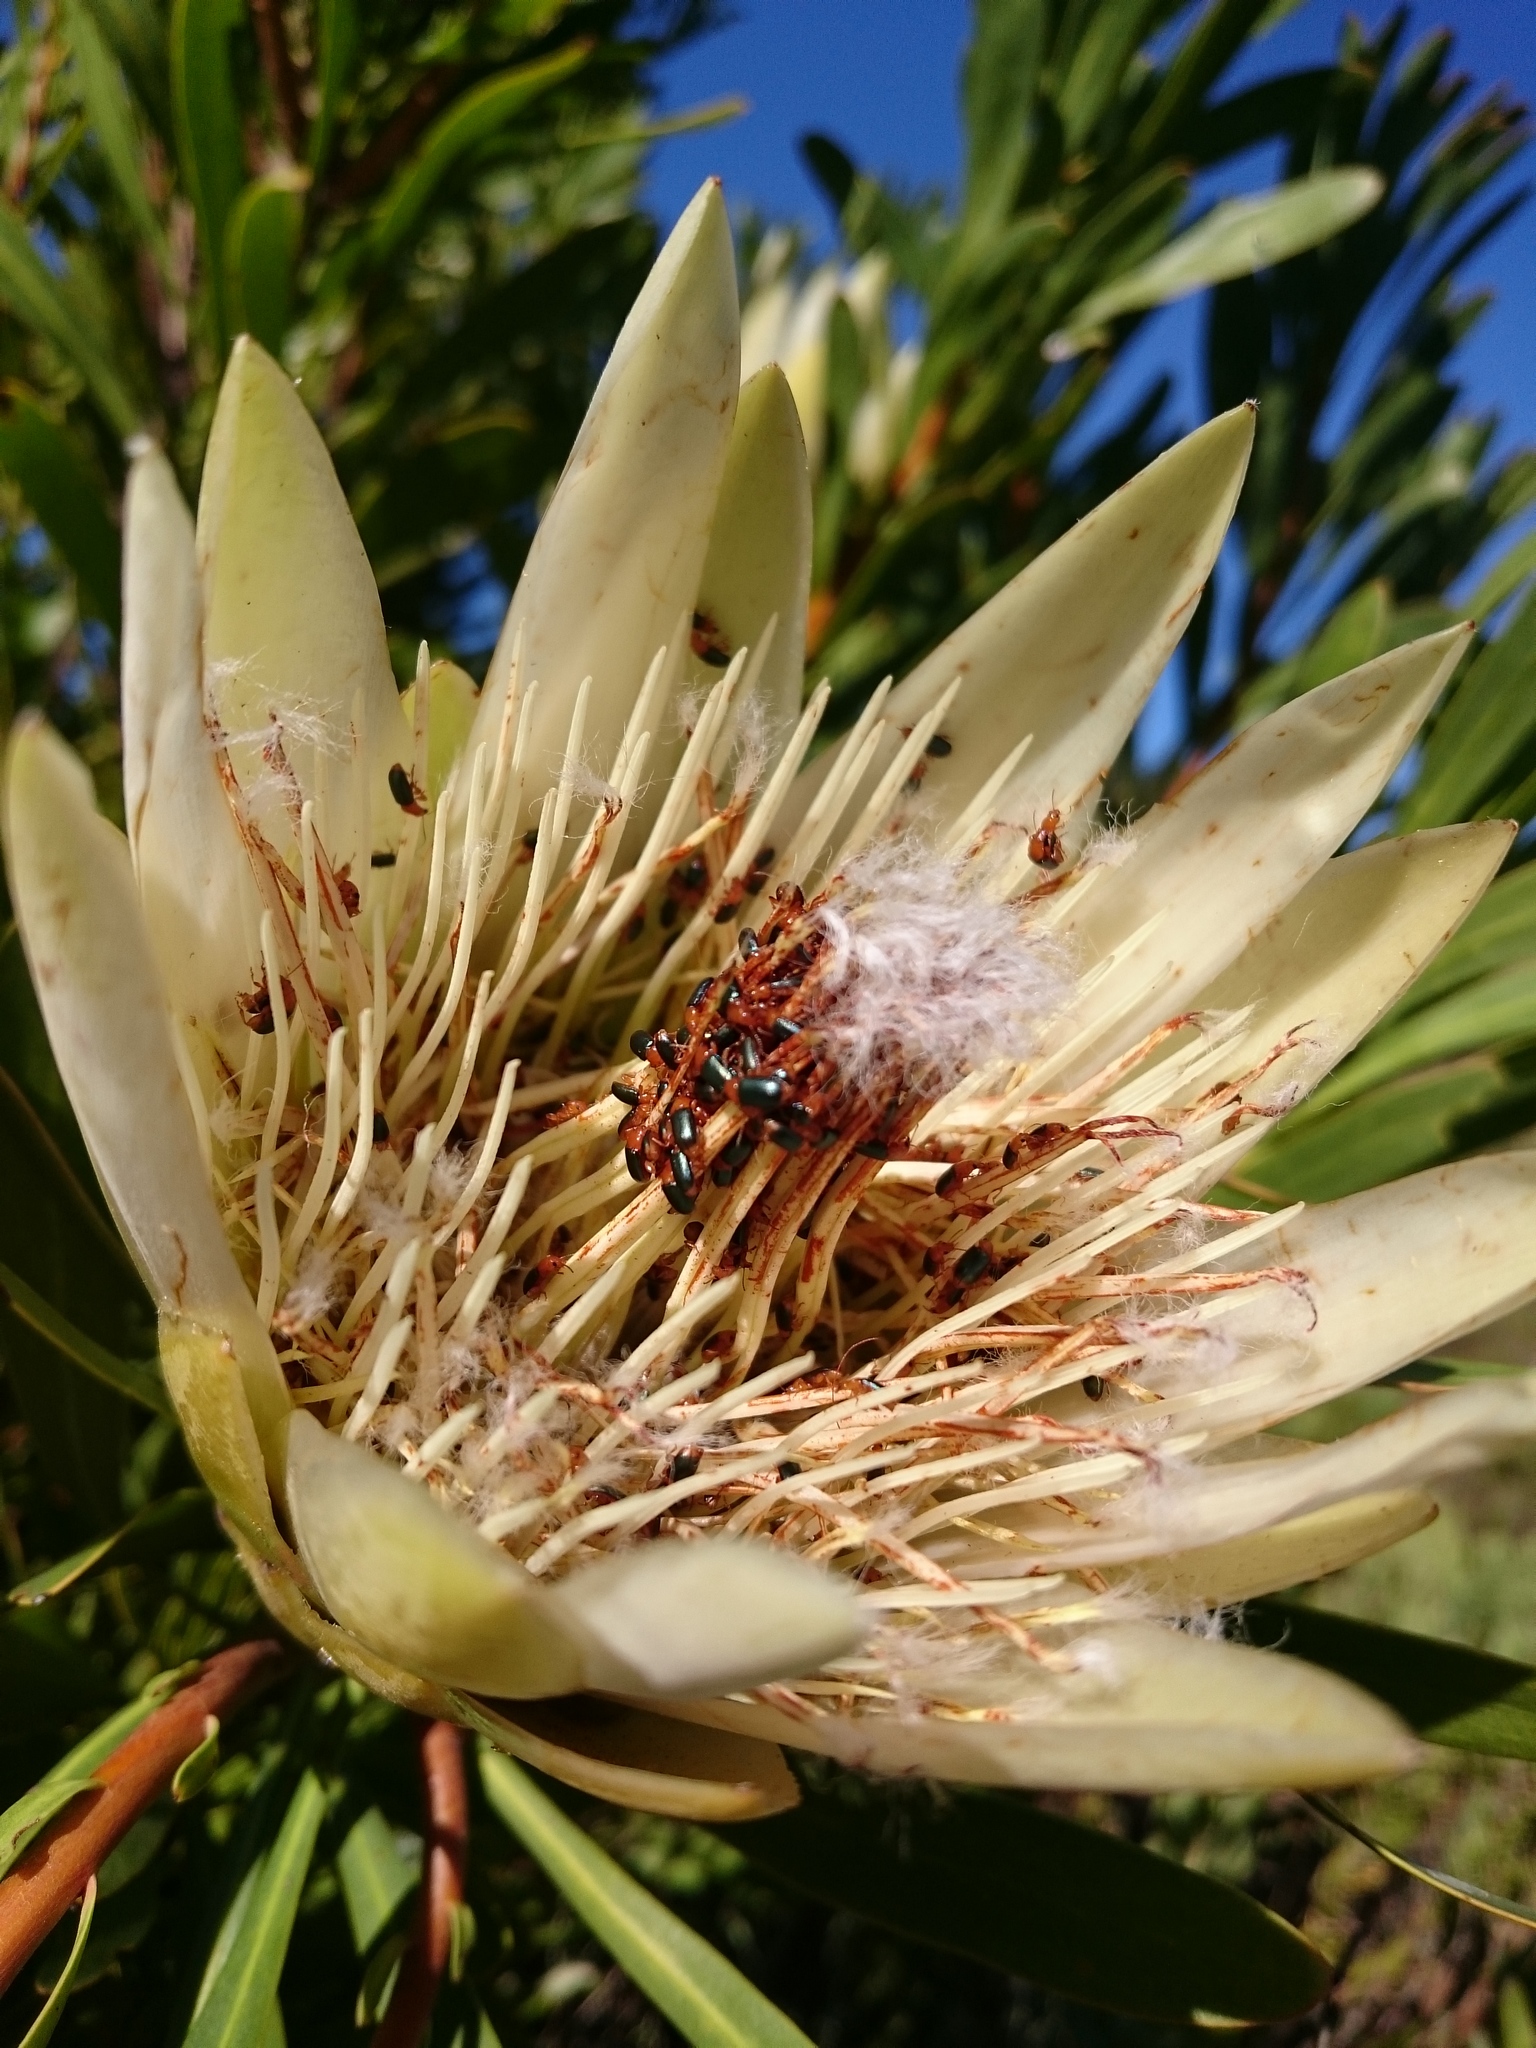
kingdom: Animalia
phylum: Arthropoda
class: Insecta
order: Coleoptera
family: Chrysomelidae
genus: Chirodica
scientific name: Chirodica
